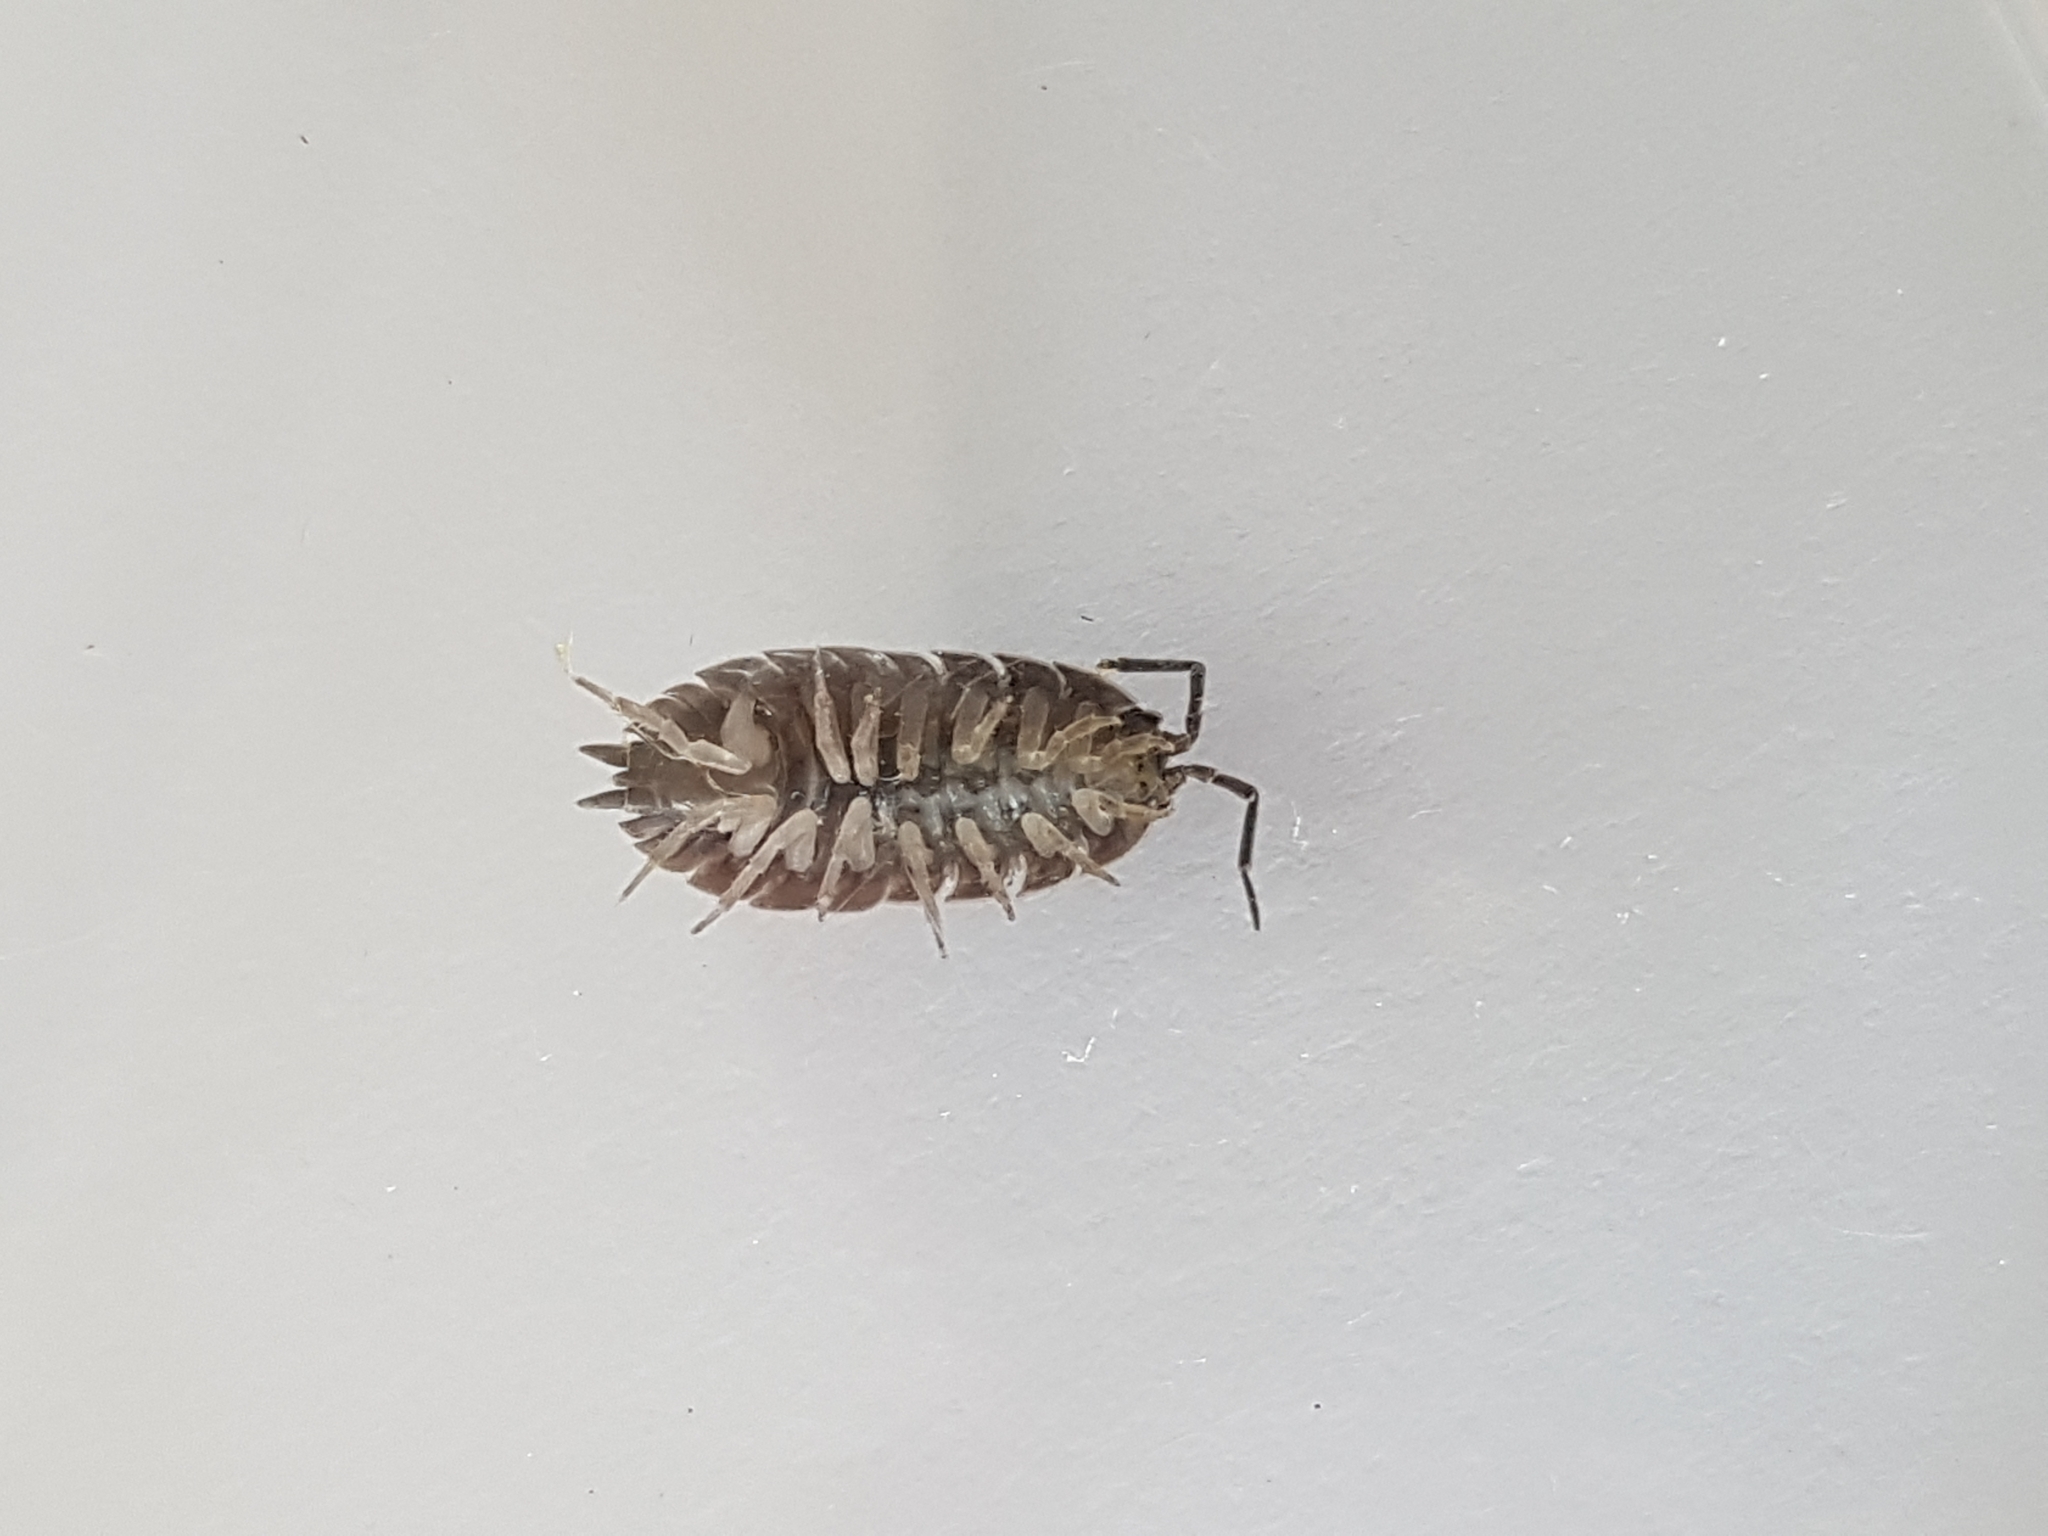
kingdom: Animalia
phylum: Arthropoda
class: Malacostraca
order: Isopoda
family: Porcellionidae
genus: Porcellio
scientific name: Porcellio scaber
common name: Common rough woodlouse
